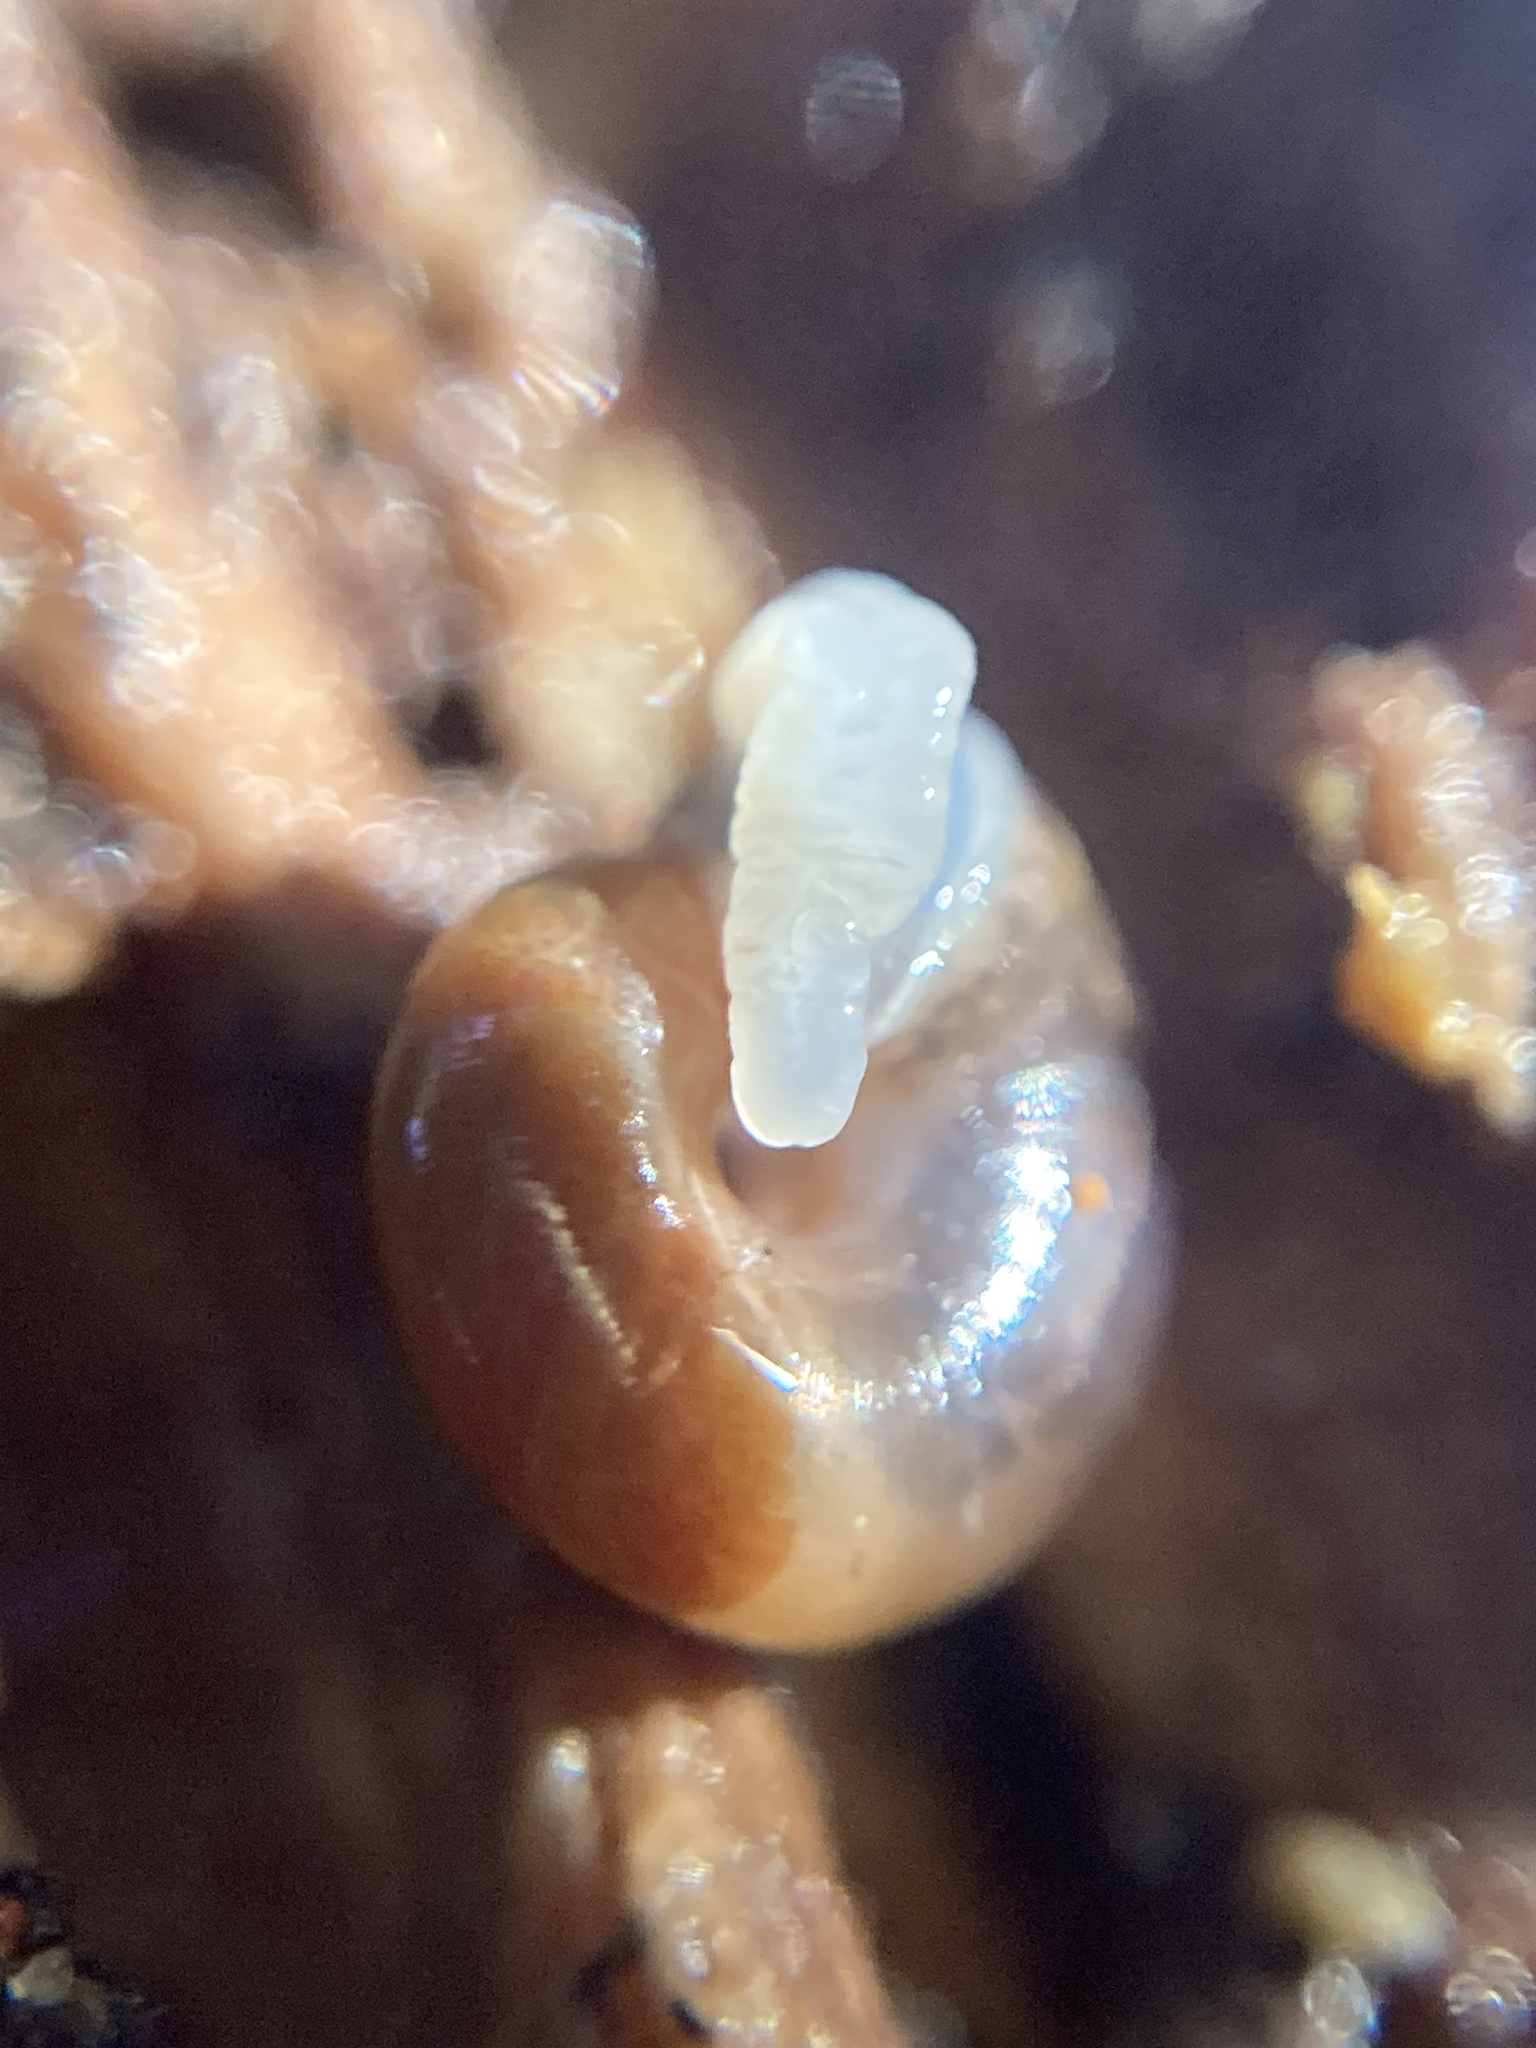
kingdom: Animalia
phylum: Mollusca
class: Gastropoda
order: Stylommatophora
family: Gastrodontidae
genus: Zonitoides
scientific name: Zonitoides arboreus
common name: Quick gloss
